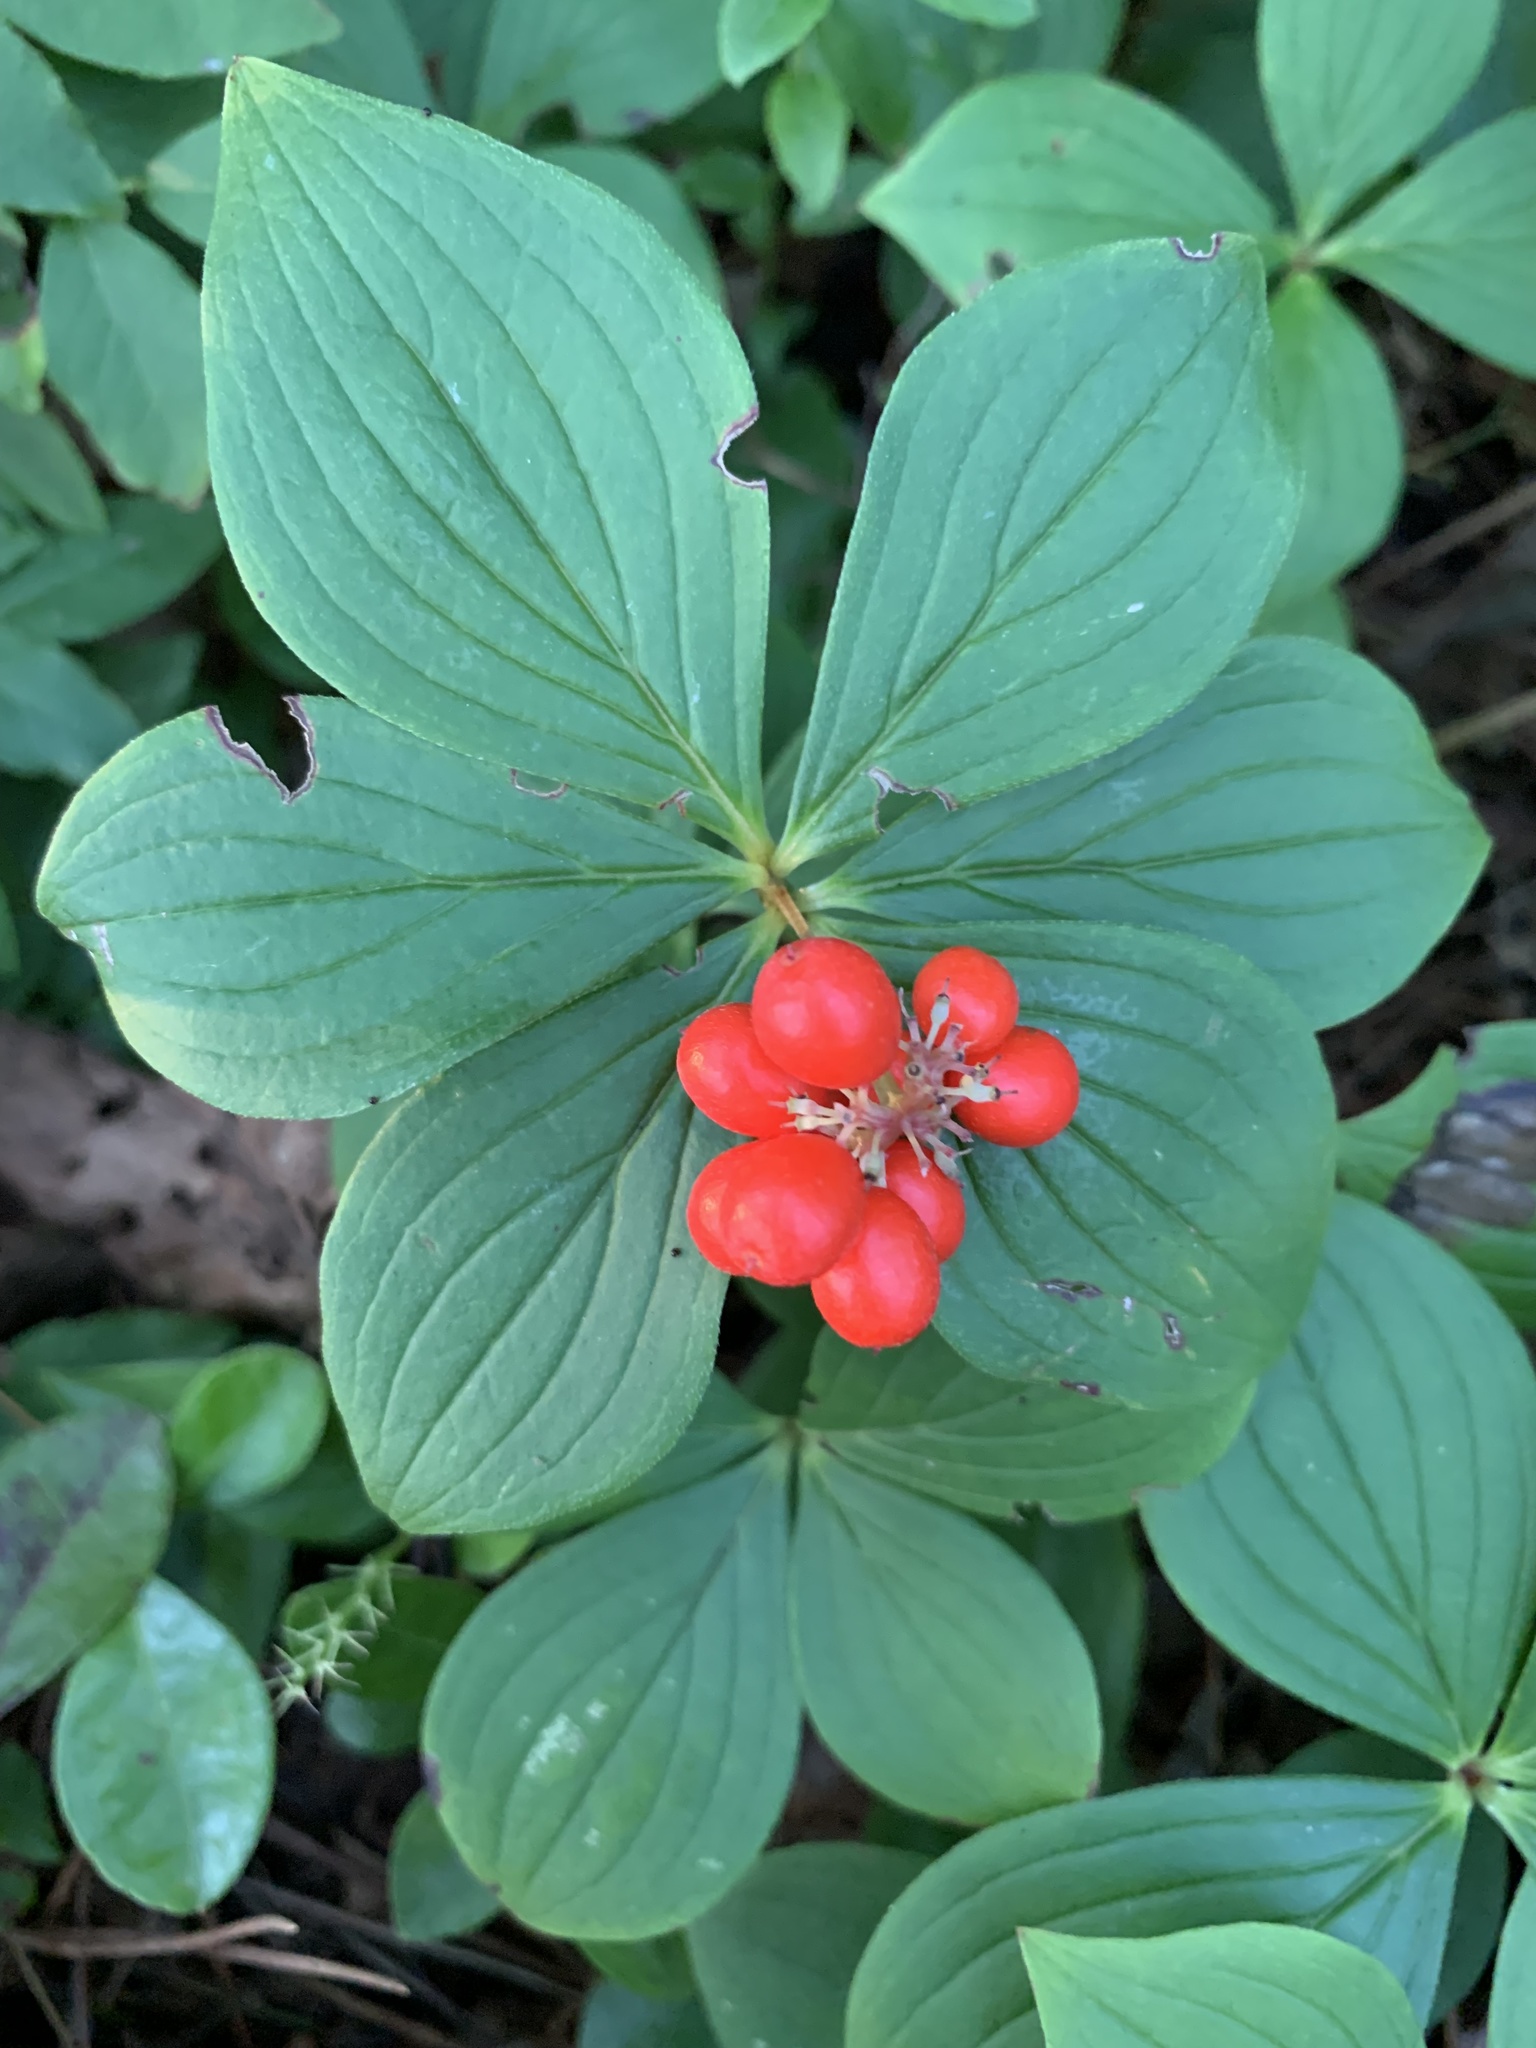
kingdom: Plantae
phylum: Tracheophyta
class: Magnoliopsida
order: Cornales
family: Cornaceae
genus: Cornus
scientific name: Cornus canadensis
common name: Creeping dogwood
